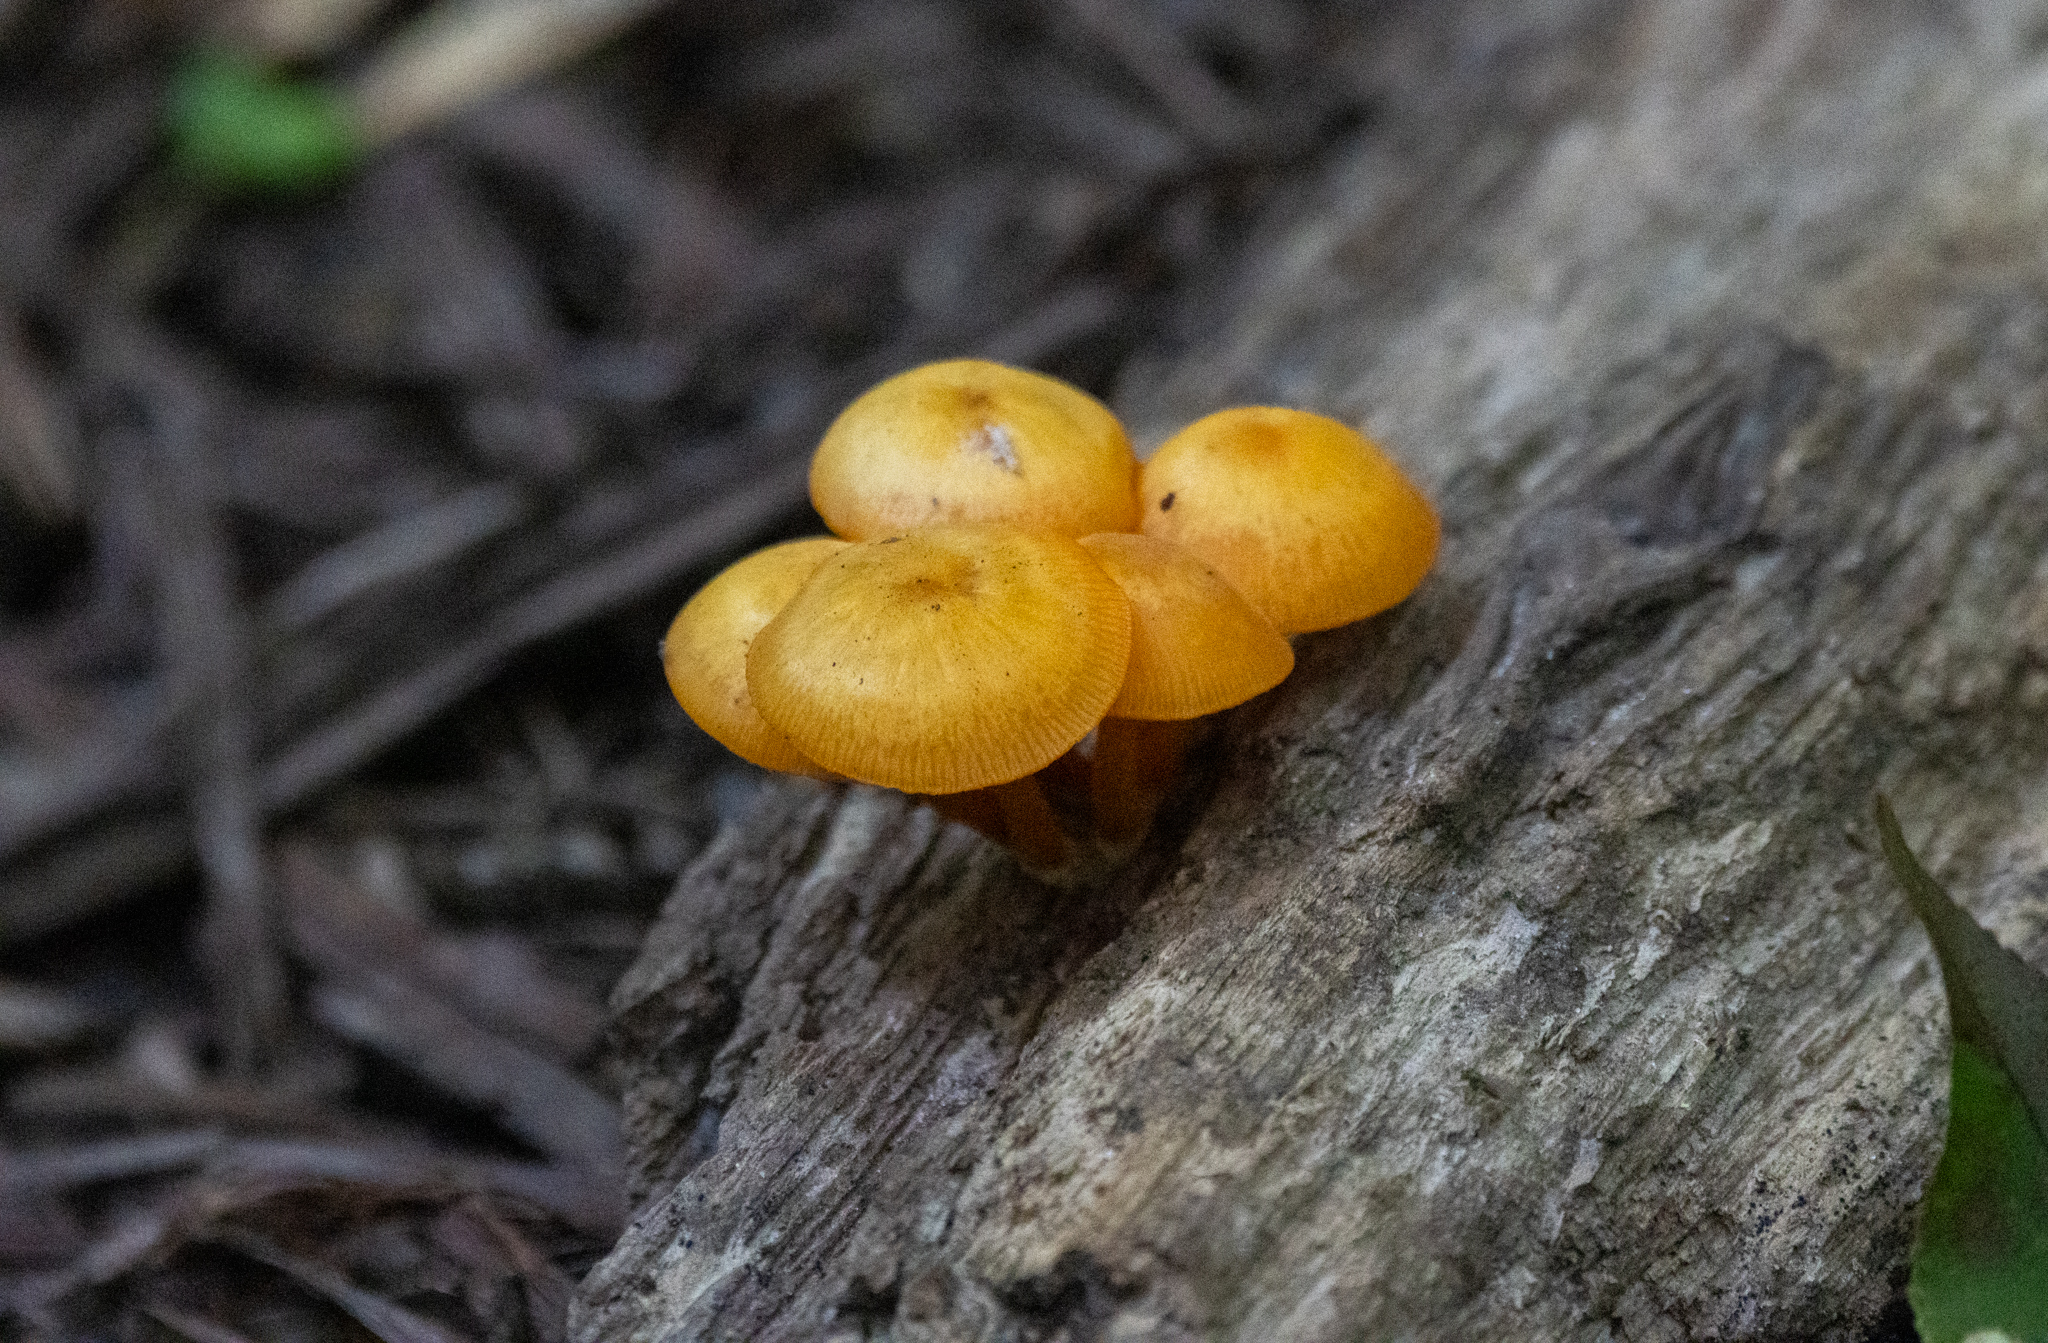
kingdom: Fungi
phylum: Basidiomycota
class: Agaricomycetes
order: Agaricales
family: Mycenaceae
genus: Mycena
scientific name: Mycena leaiana
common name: Orange mycena
